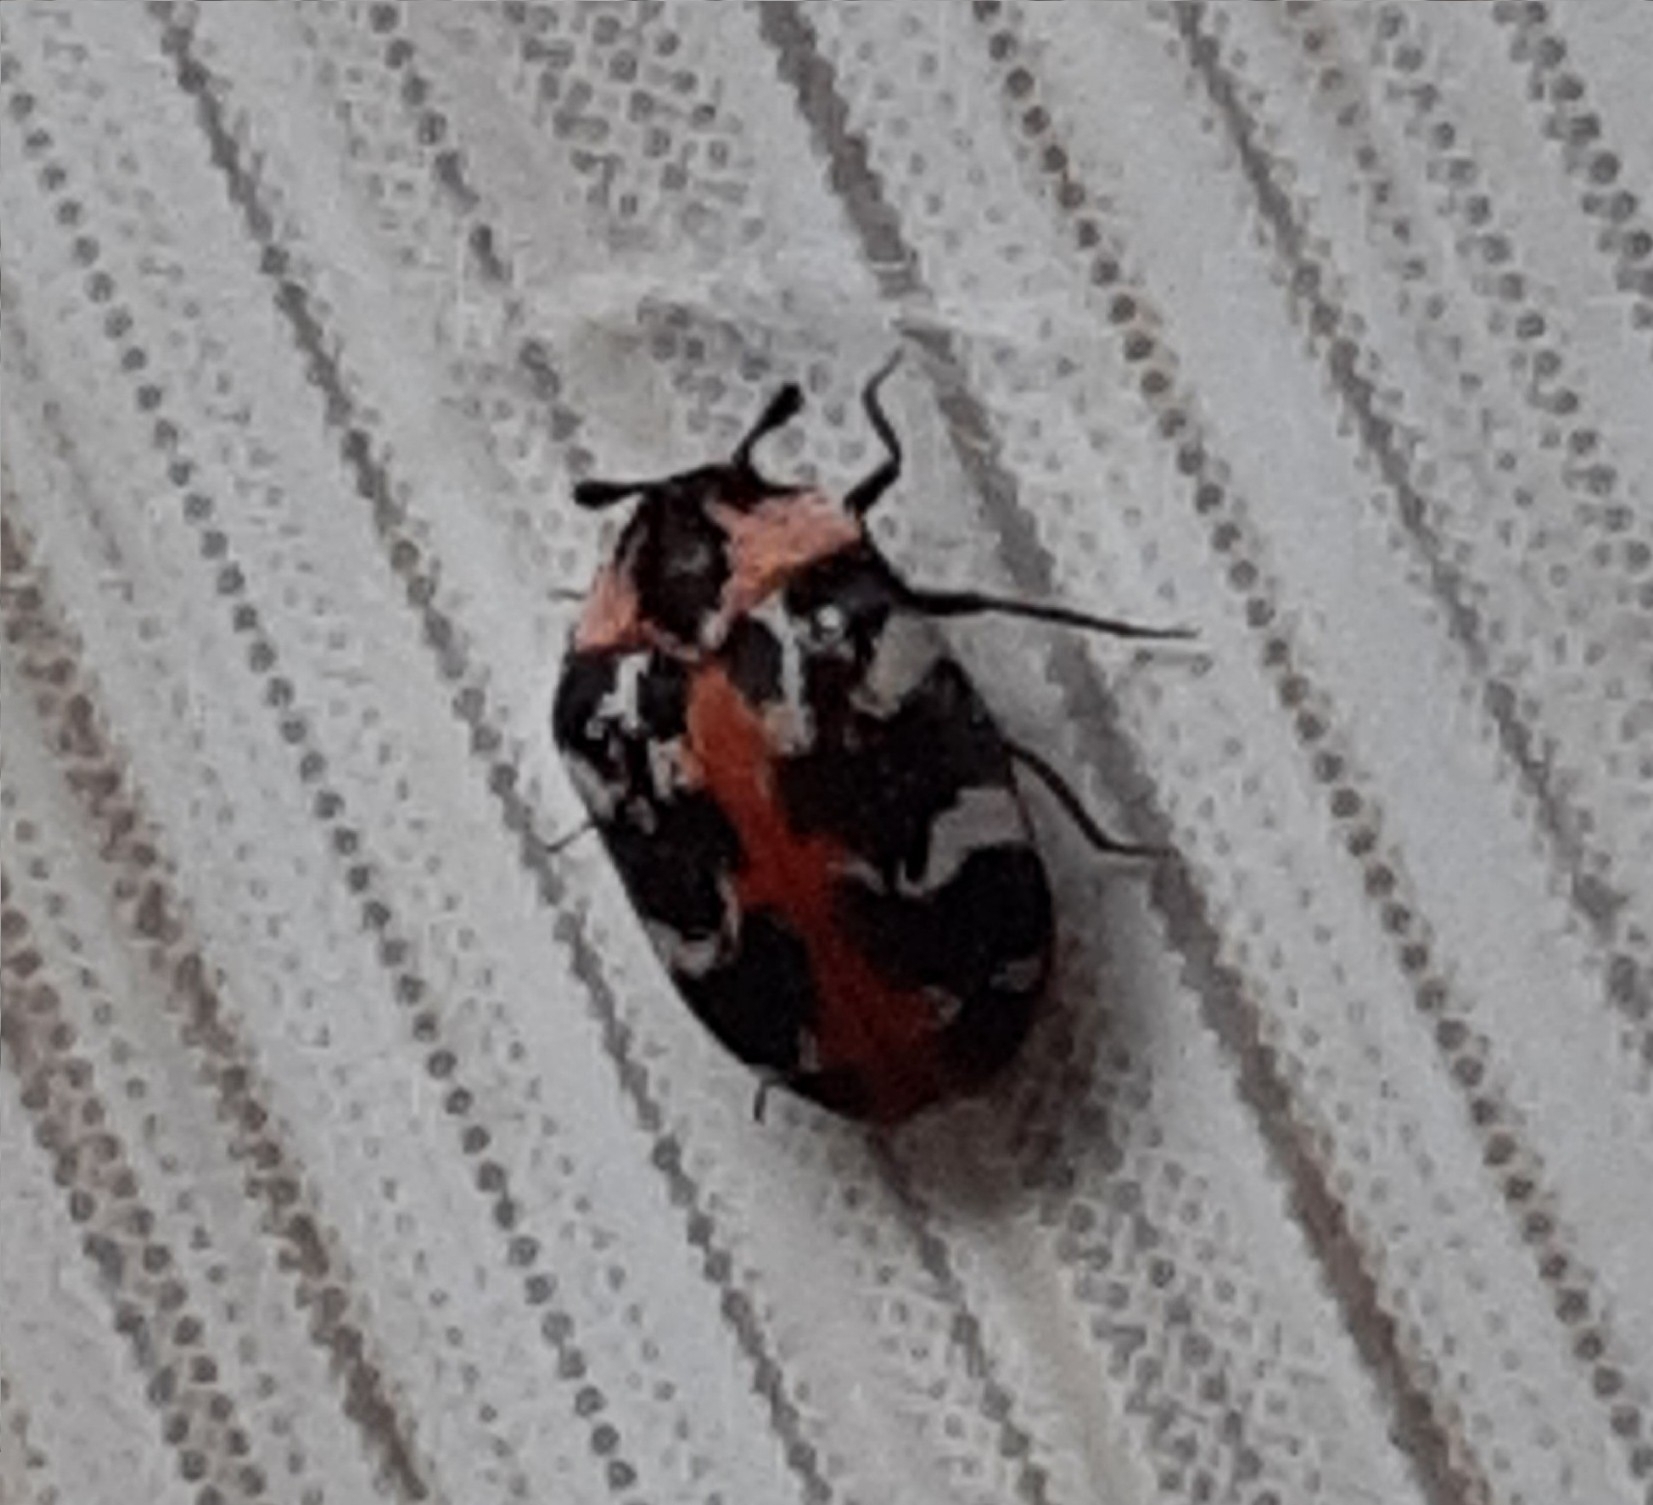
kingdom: Animalia
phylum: Arthropoda
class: Insecta
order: Coleoptera
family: Dermestidae
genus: Anthrenus
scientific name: Anthrenus scrophulariae
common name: Buffalo carpet beetle
